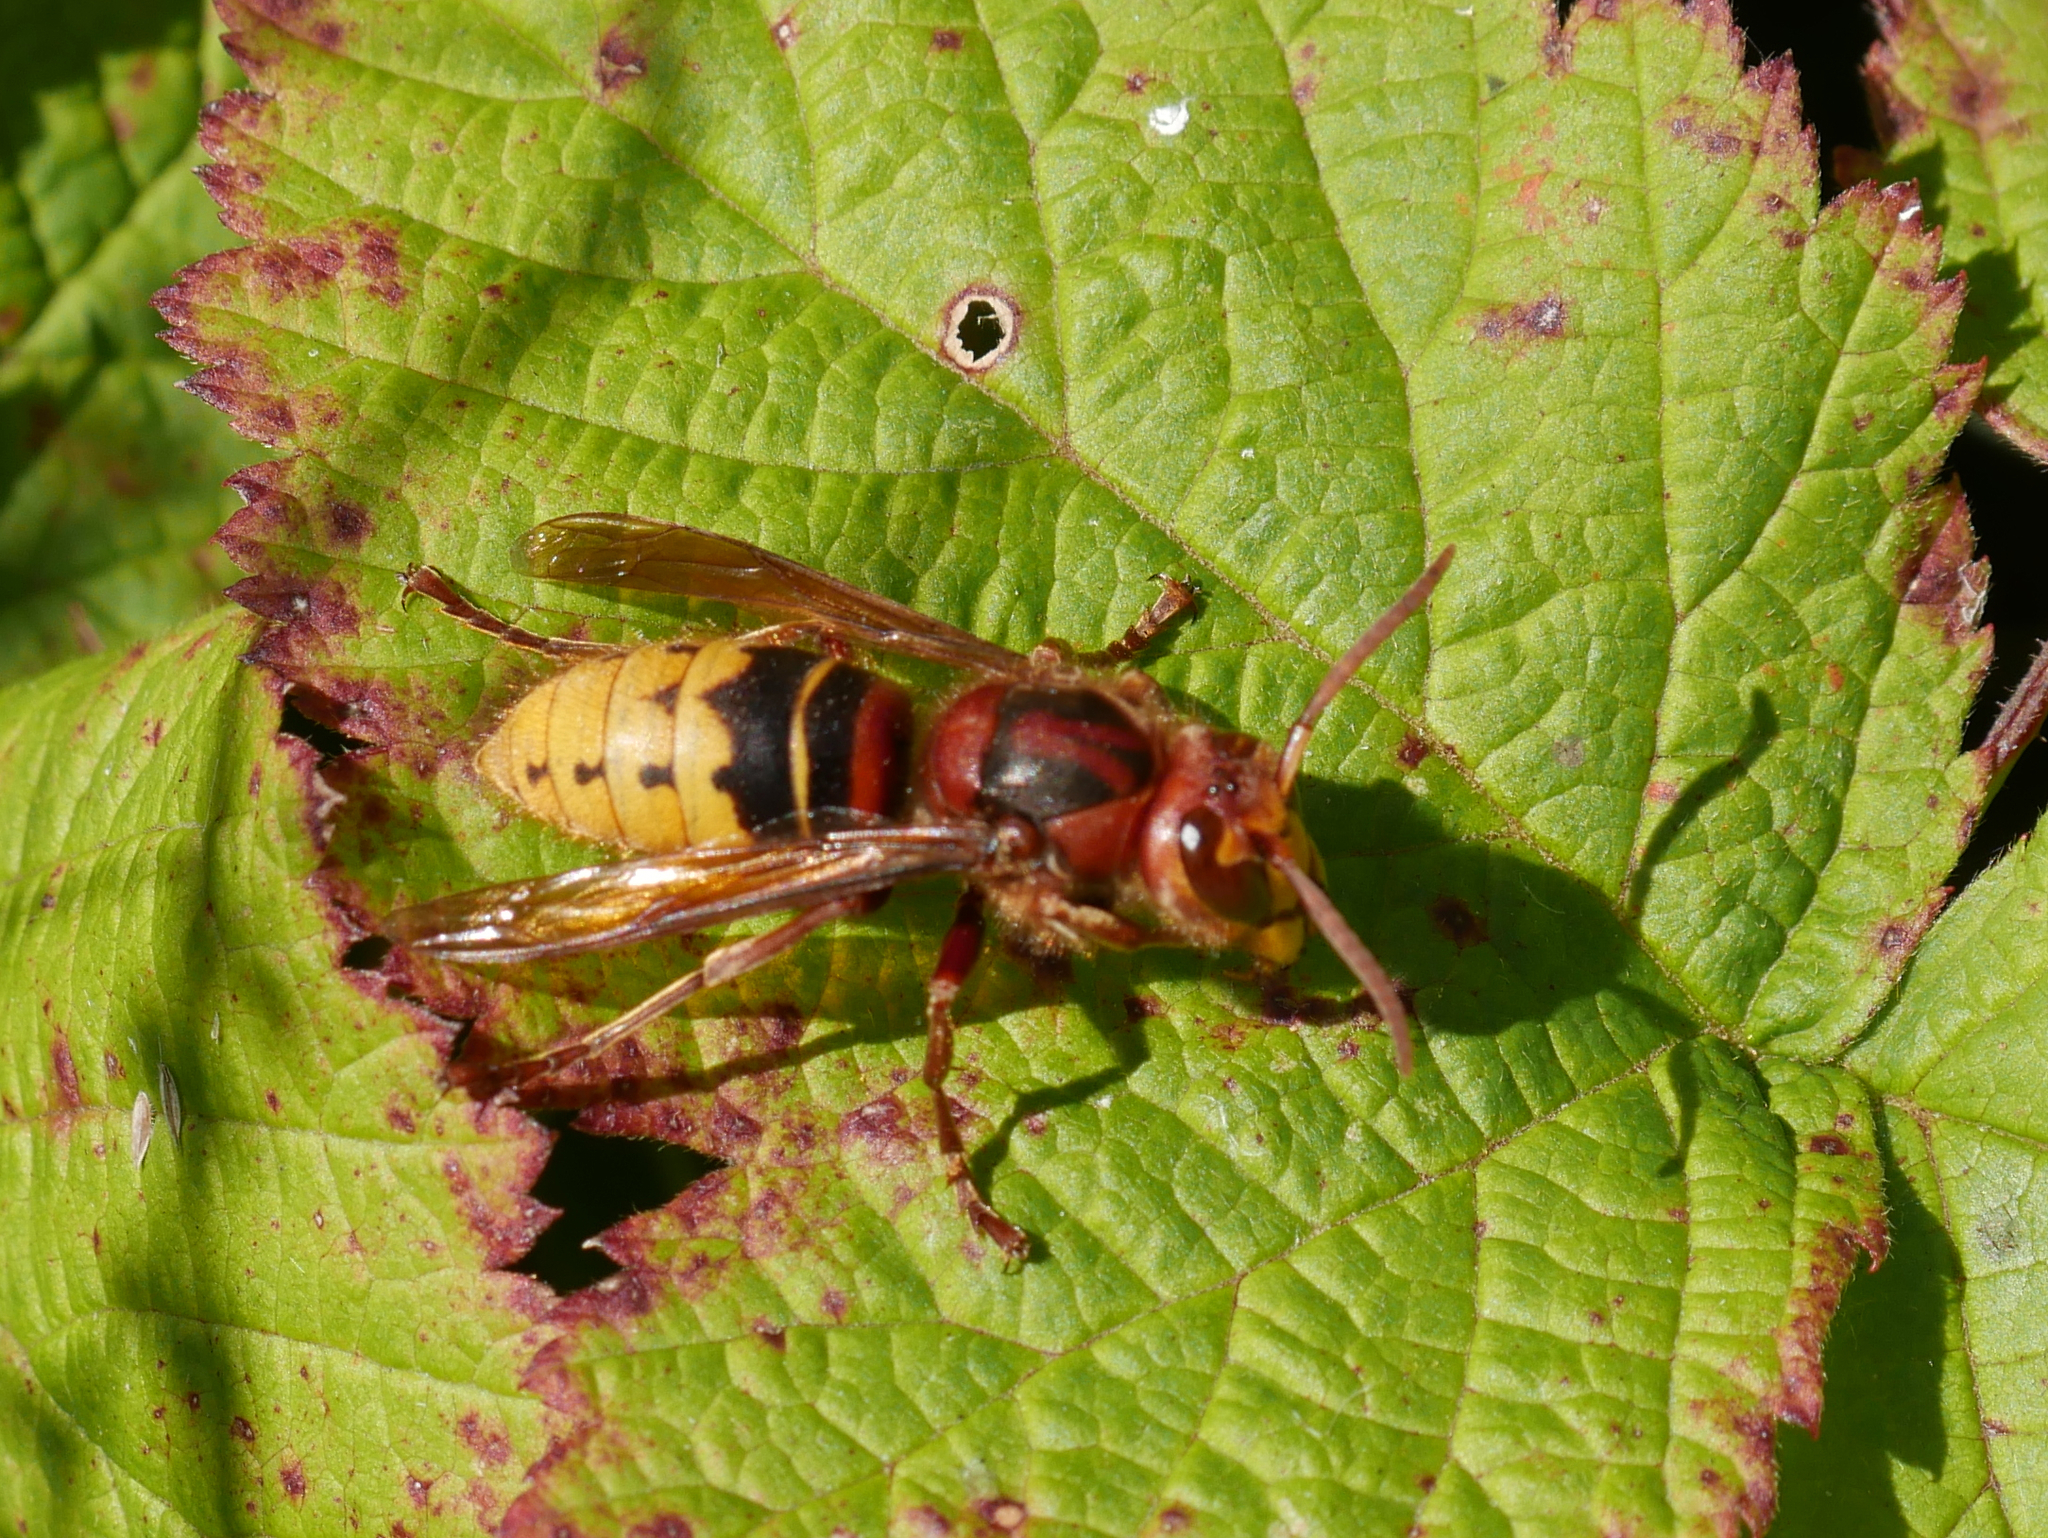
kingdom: Animalia
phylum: Arthropoda
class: Insecta
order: Hymenoptera
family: Vespidae
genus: Vespa
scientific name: Vespa crabro
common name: Hornet
